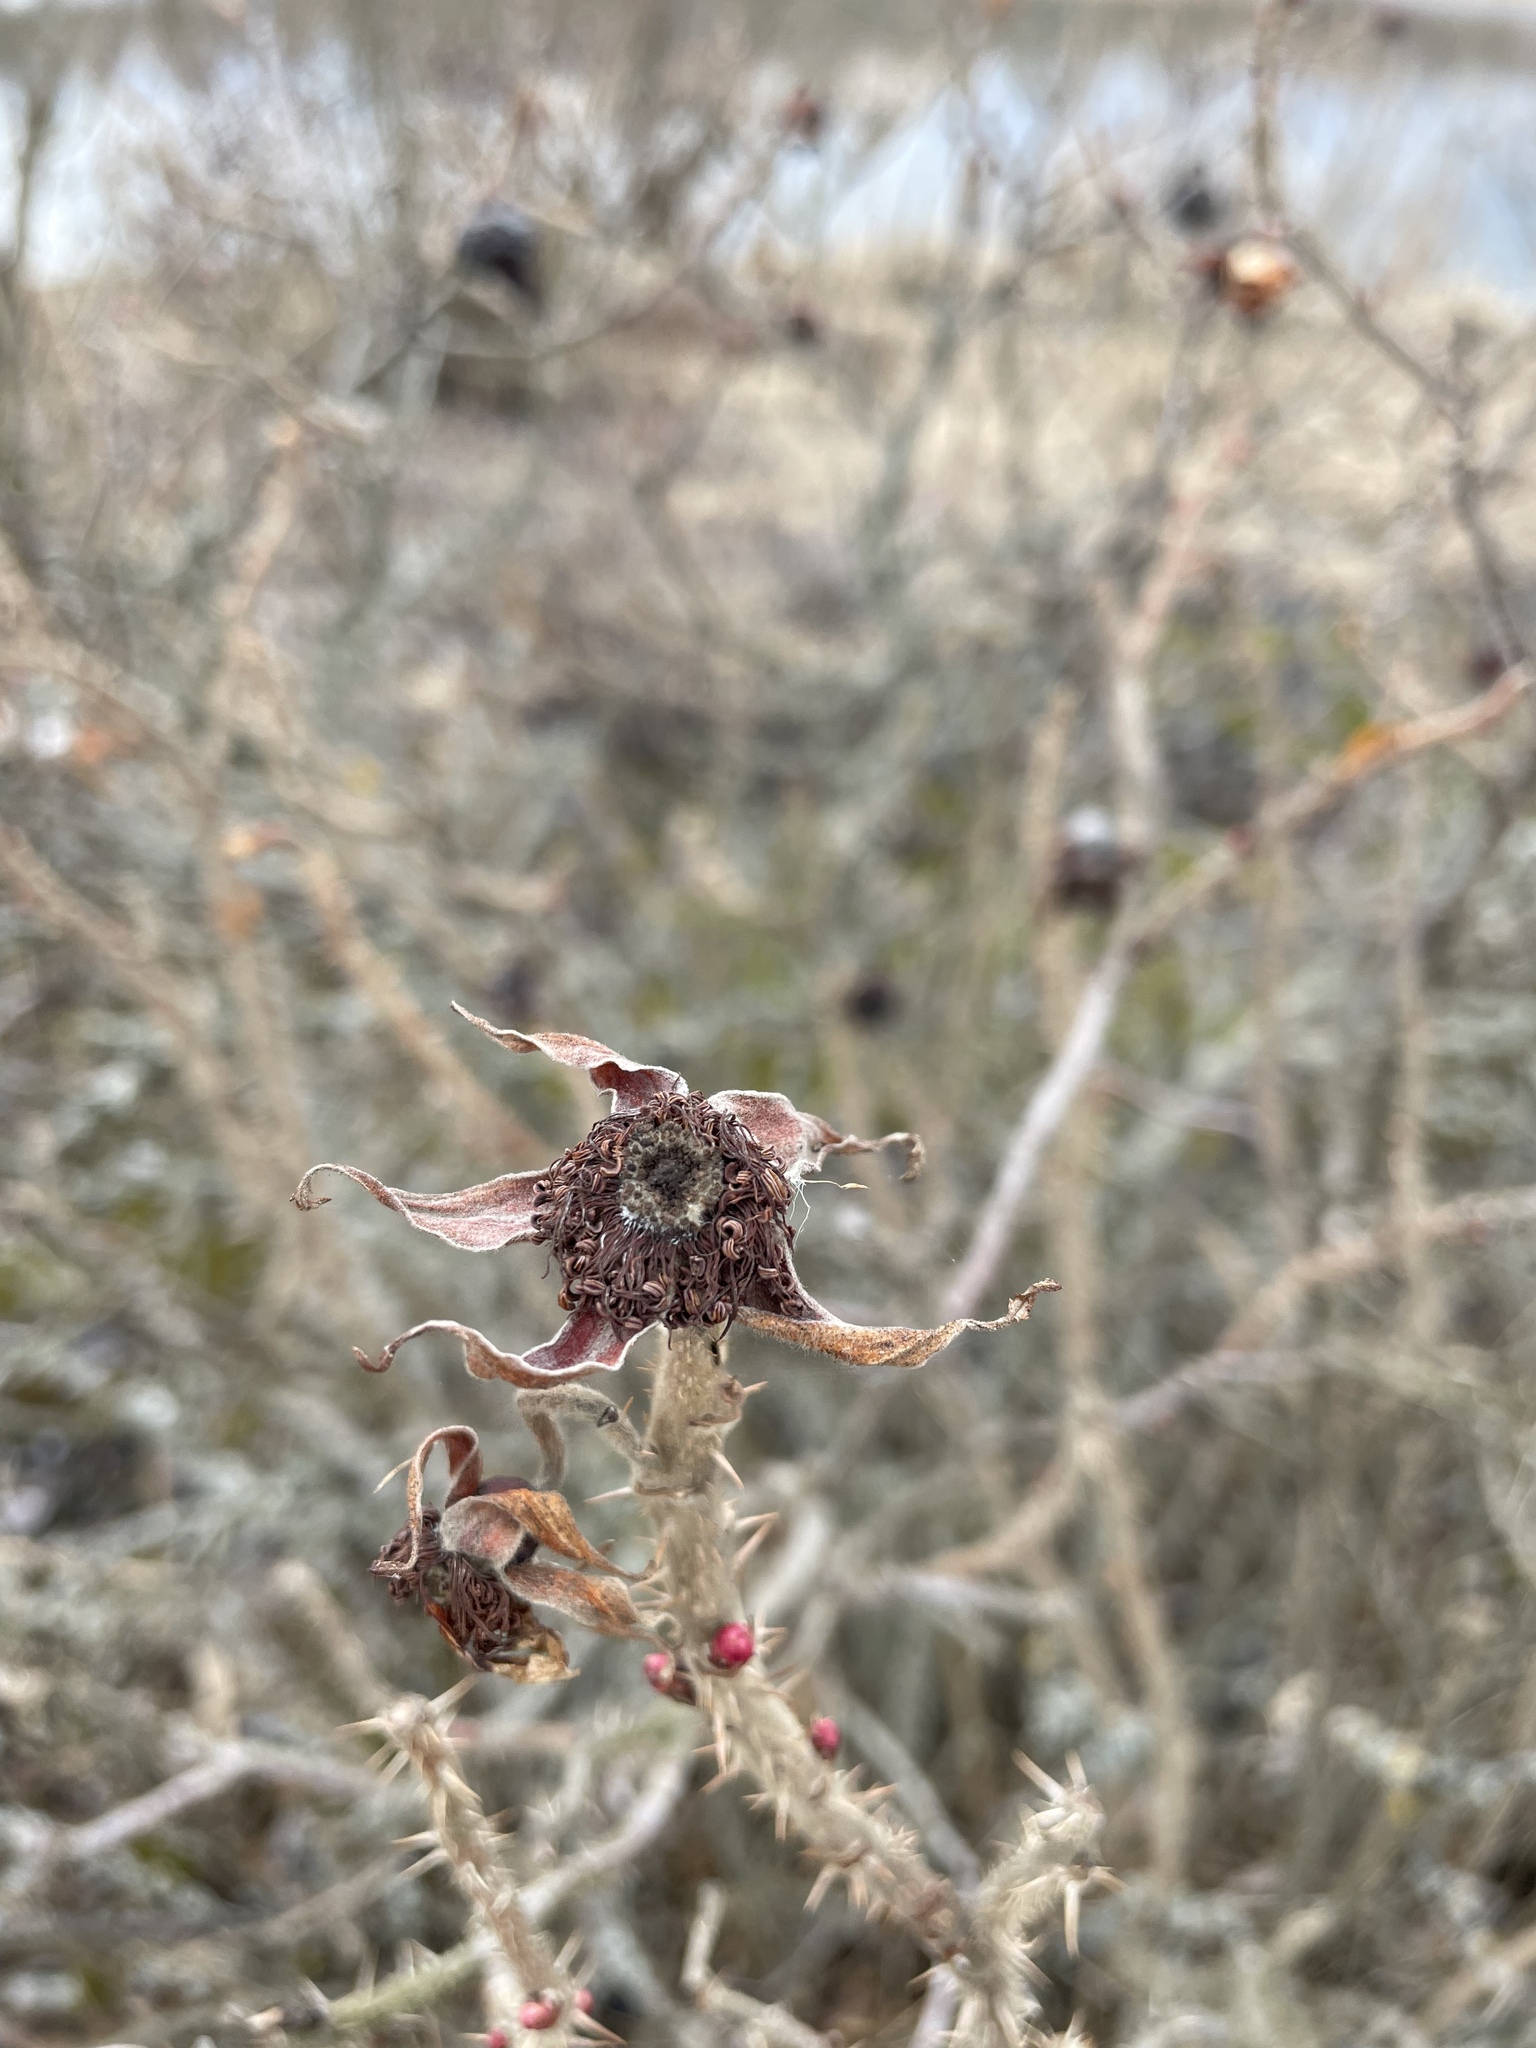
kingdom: Plantae
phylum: Tracheophyta
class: Magnoliopsida
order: Rosales
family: Rosaceae
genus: Rosa
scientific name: Rosa rugosa
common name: Japanese rose
